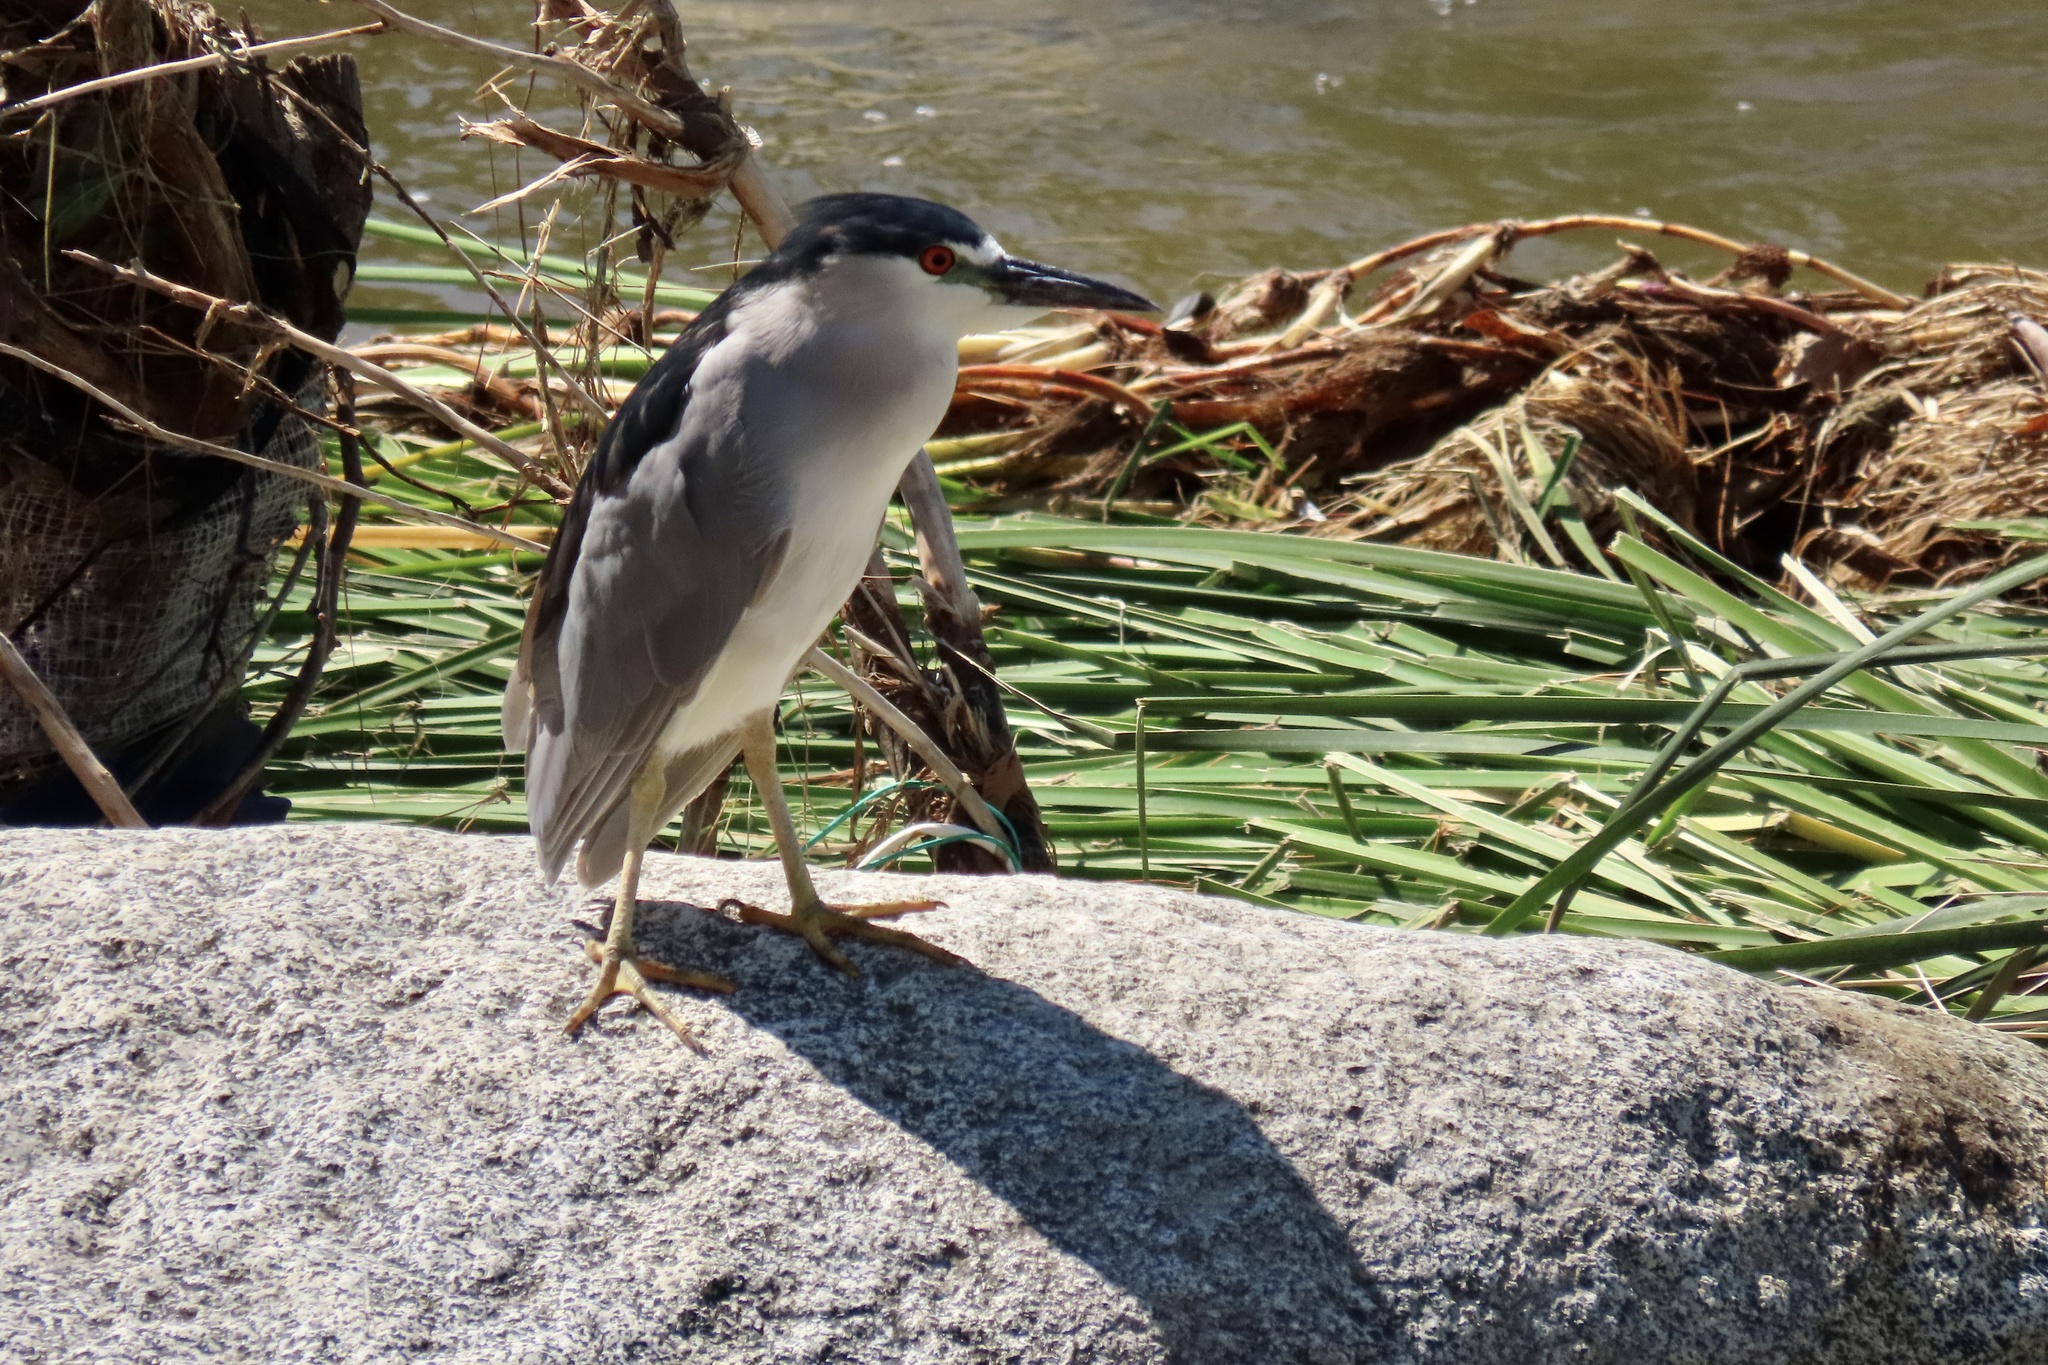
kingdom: Animalia
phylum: Chordata
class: Aves
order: Pelecaniformes
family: Ardeidae
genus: Nycticorax
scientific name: Nycticorax nycticorax
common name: Black-crowned night heron
